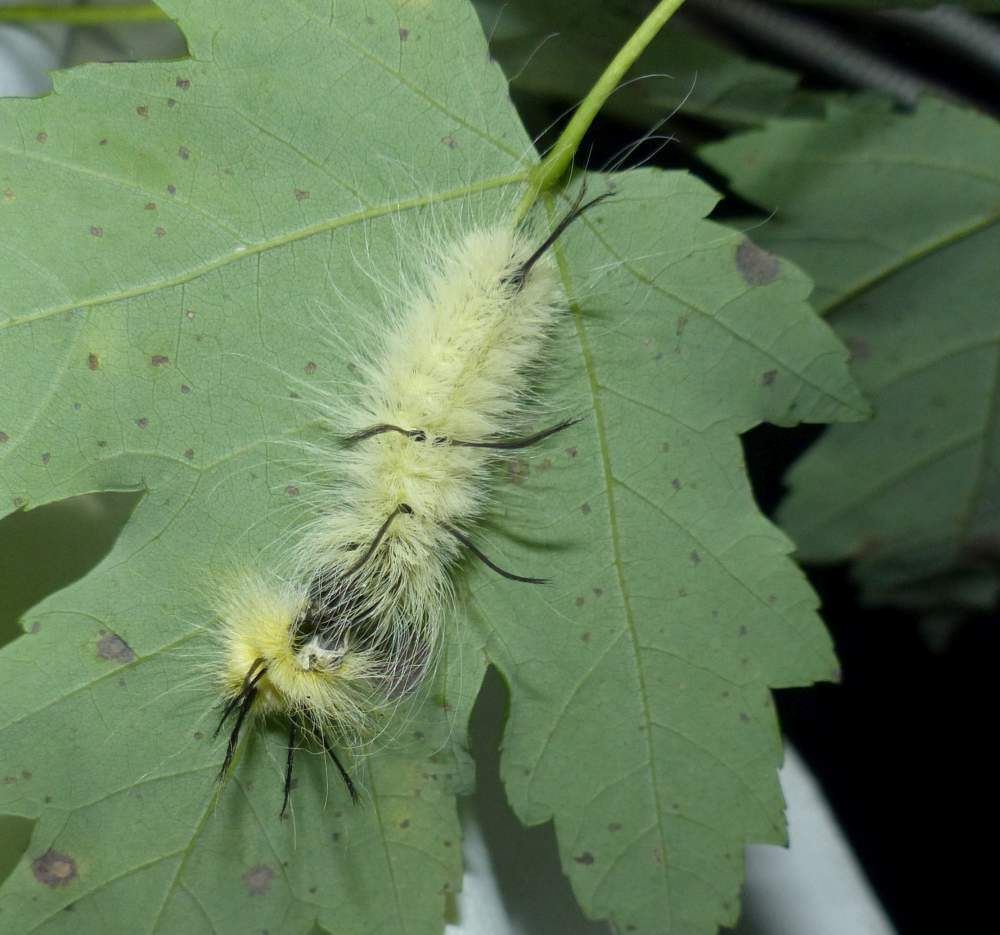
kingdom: Animalia
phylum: Arthropoda
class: Insecta
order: Lepidoptera
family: Noctuidae
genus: Acronicta
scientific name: Acronicta americana
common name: American dagger
